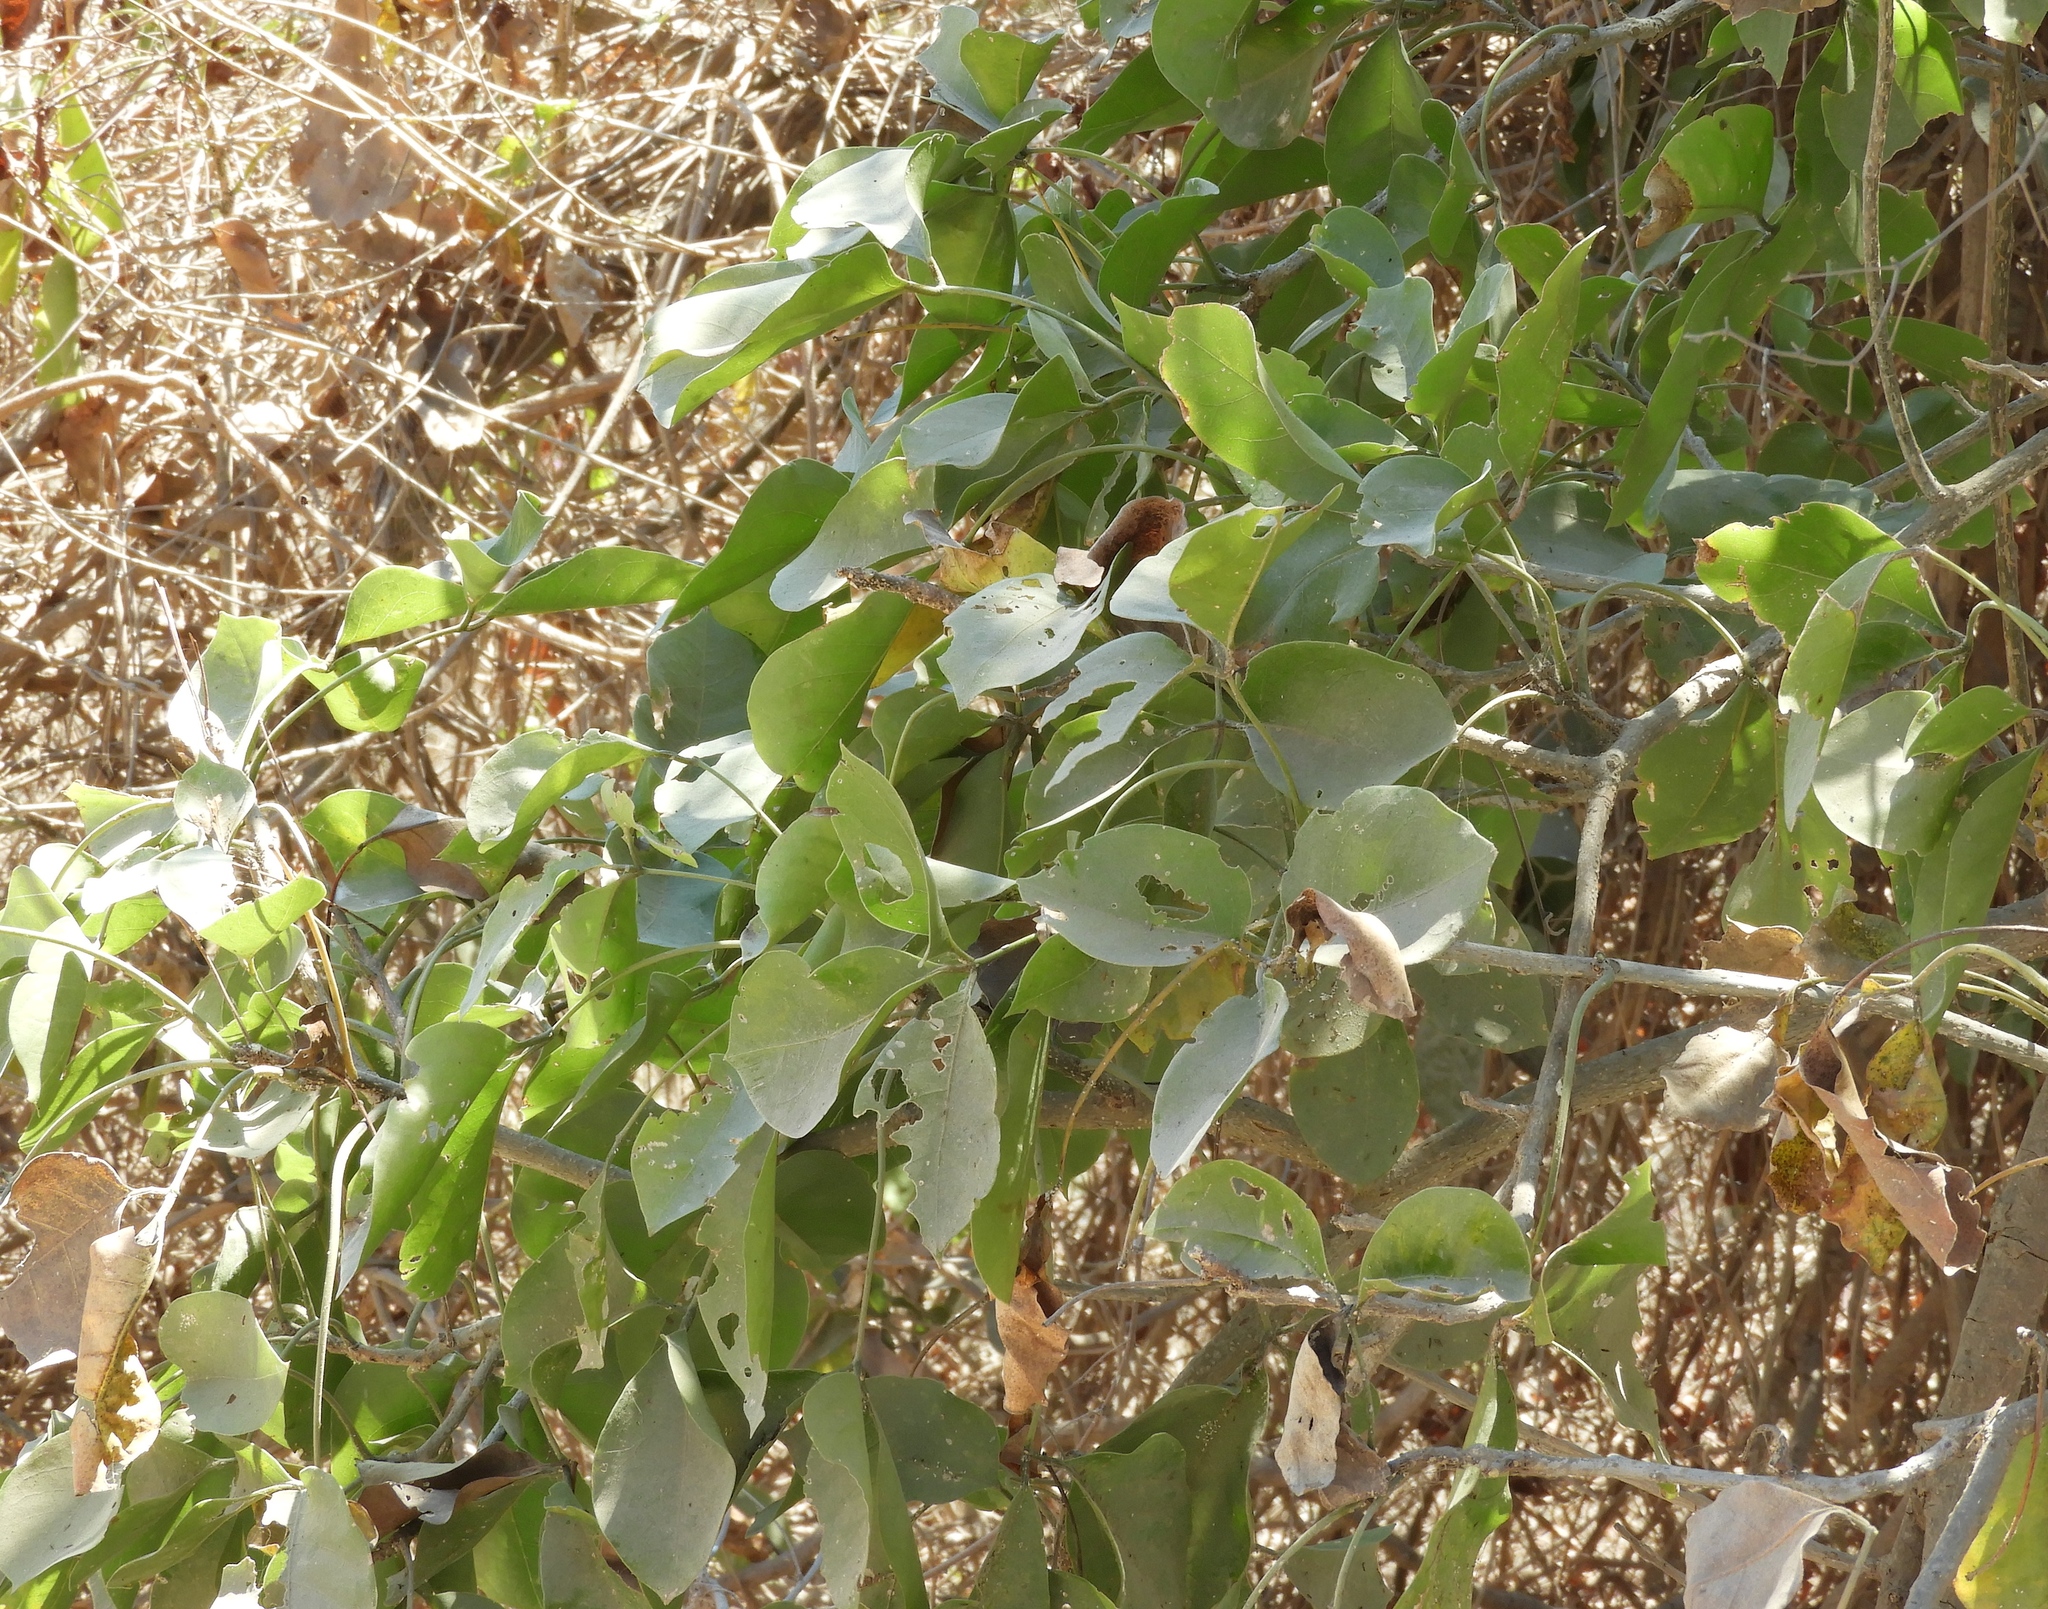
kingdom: Plantae
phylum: Tracheophyta
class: Magnoliopsida
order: Brassicales
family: Capparaceae
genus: Crateva
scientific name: Crateva tapia
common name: Garlic-pear
